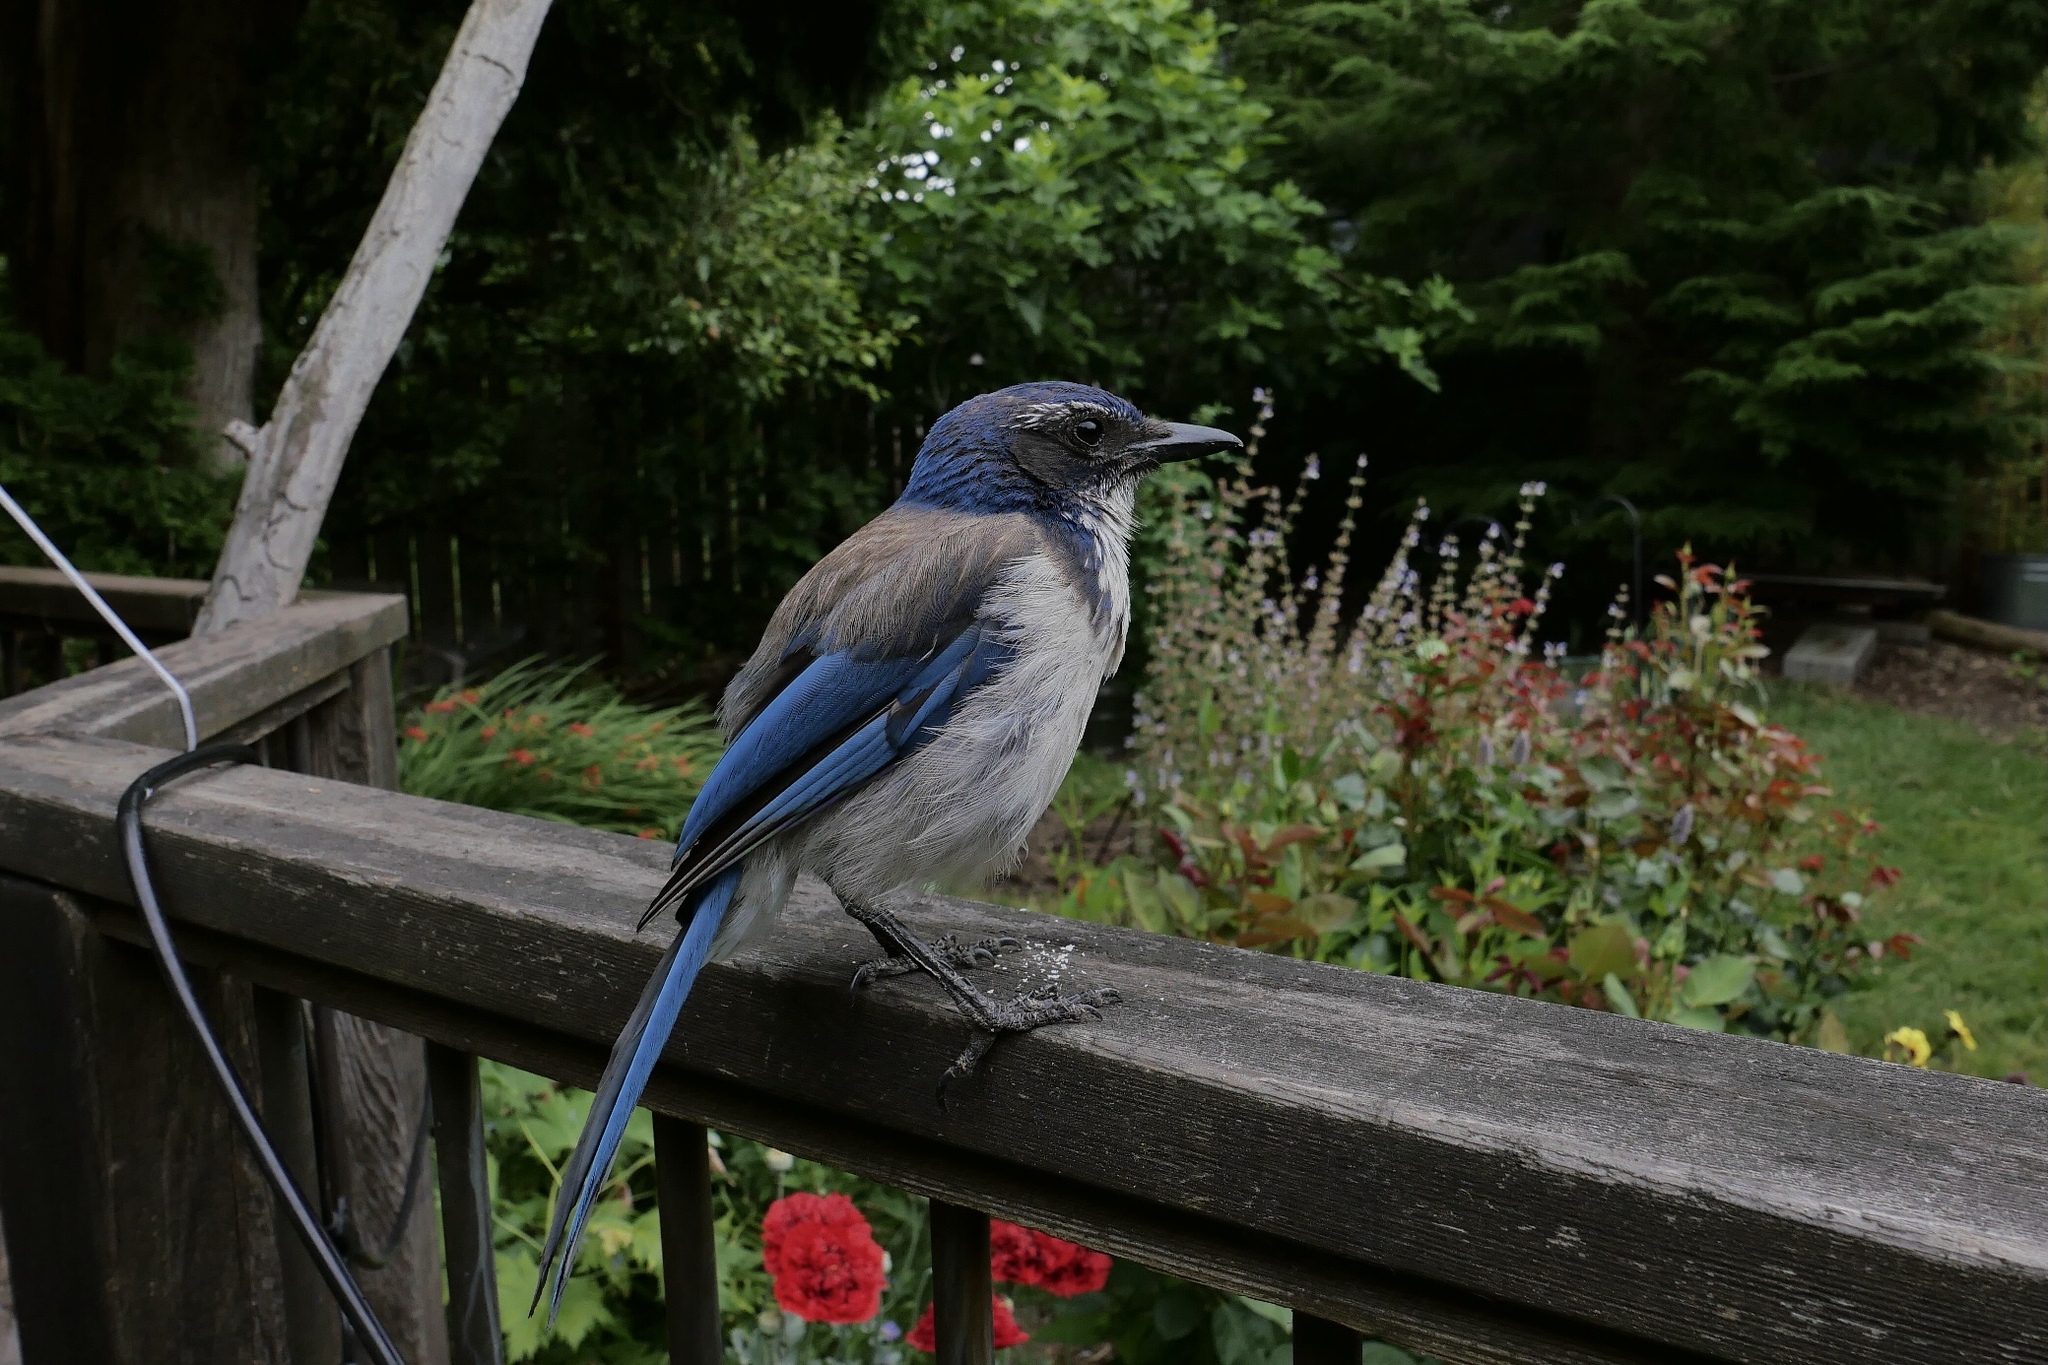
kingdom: Animalia
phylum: Chordata
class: Aves
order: Passeriformes
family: Corvidae
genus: Aphelocoma
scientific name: Aphelocoma californica
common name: California scrub-jay
